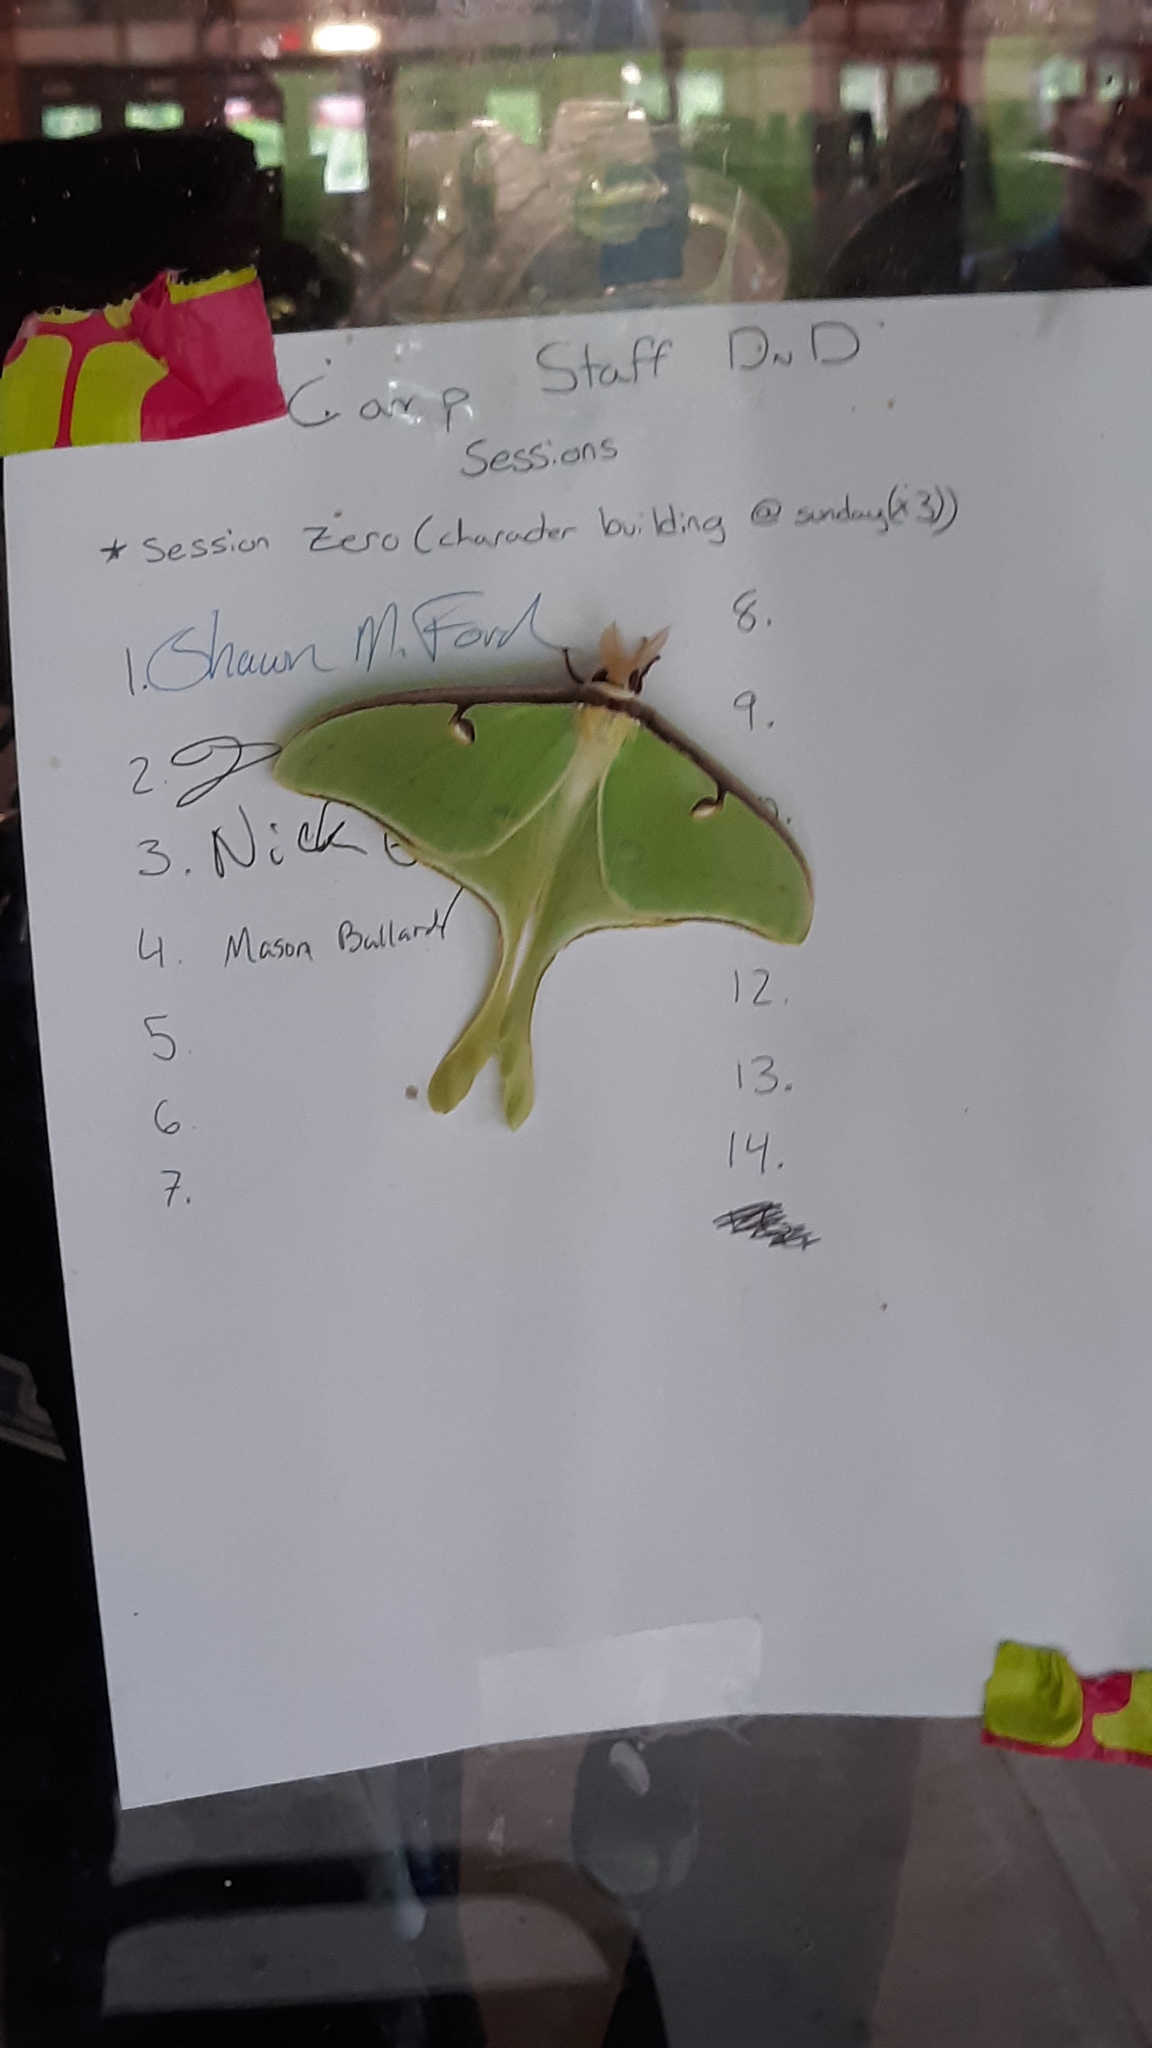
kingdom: Animalia
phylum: Arthropoda
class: Insecta
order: Lepidoptera
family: Saturniidae
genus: Actias
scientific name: Actias luna
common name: Luna moth
